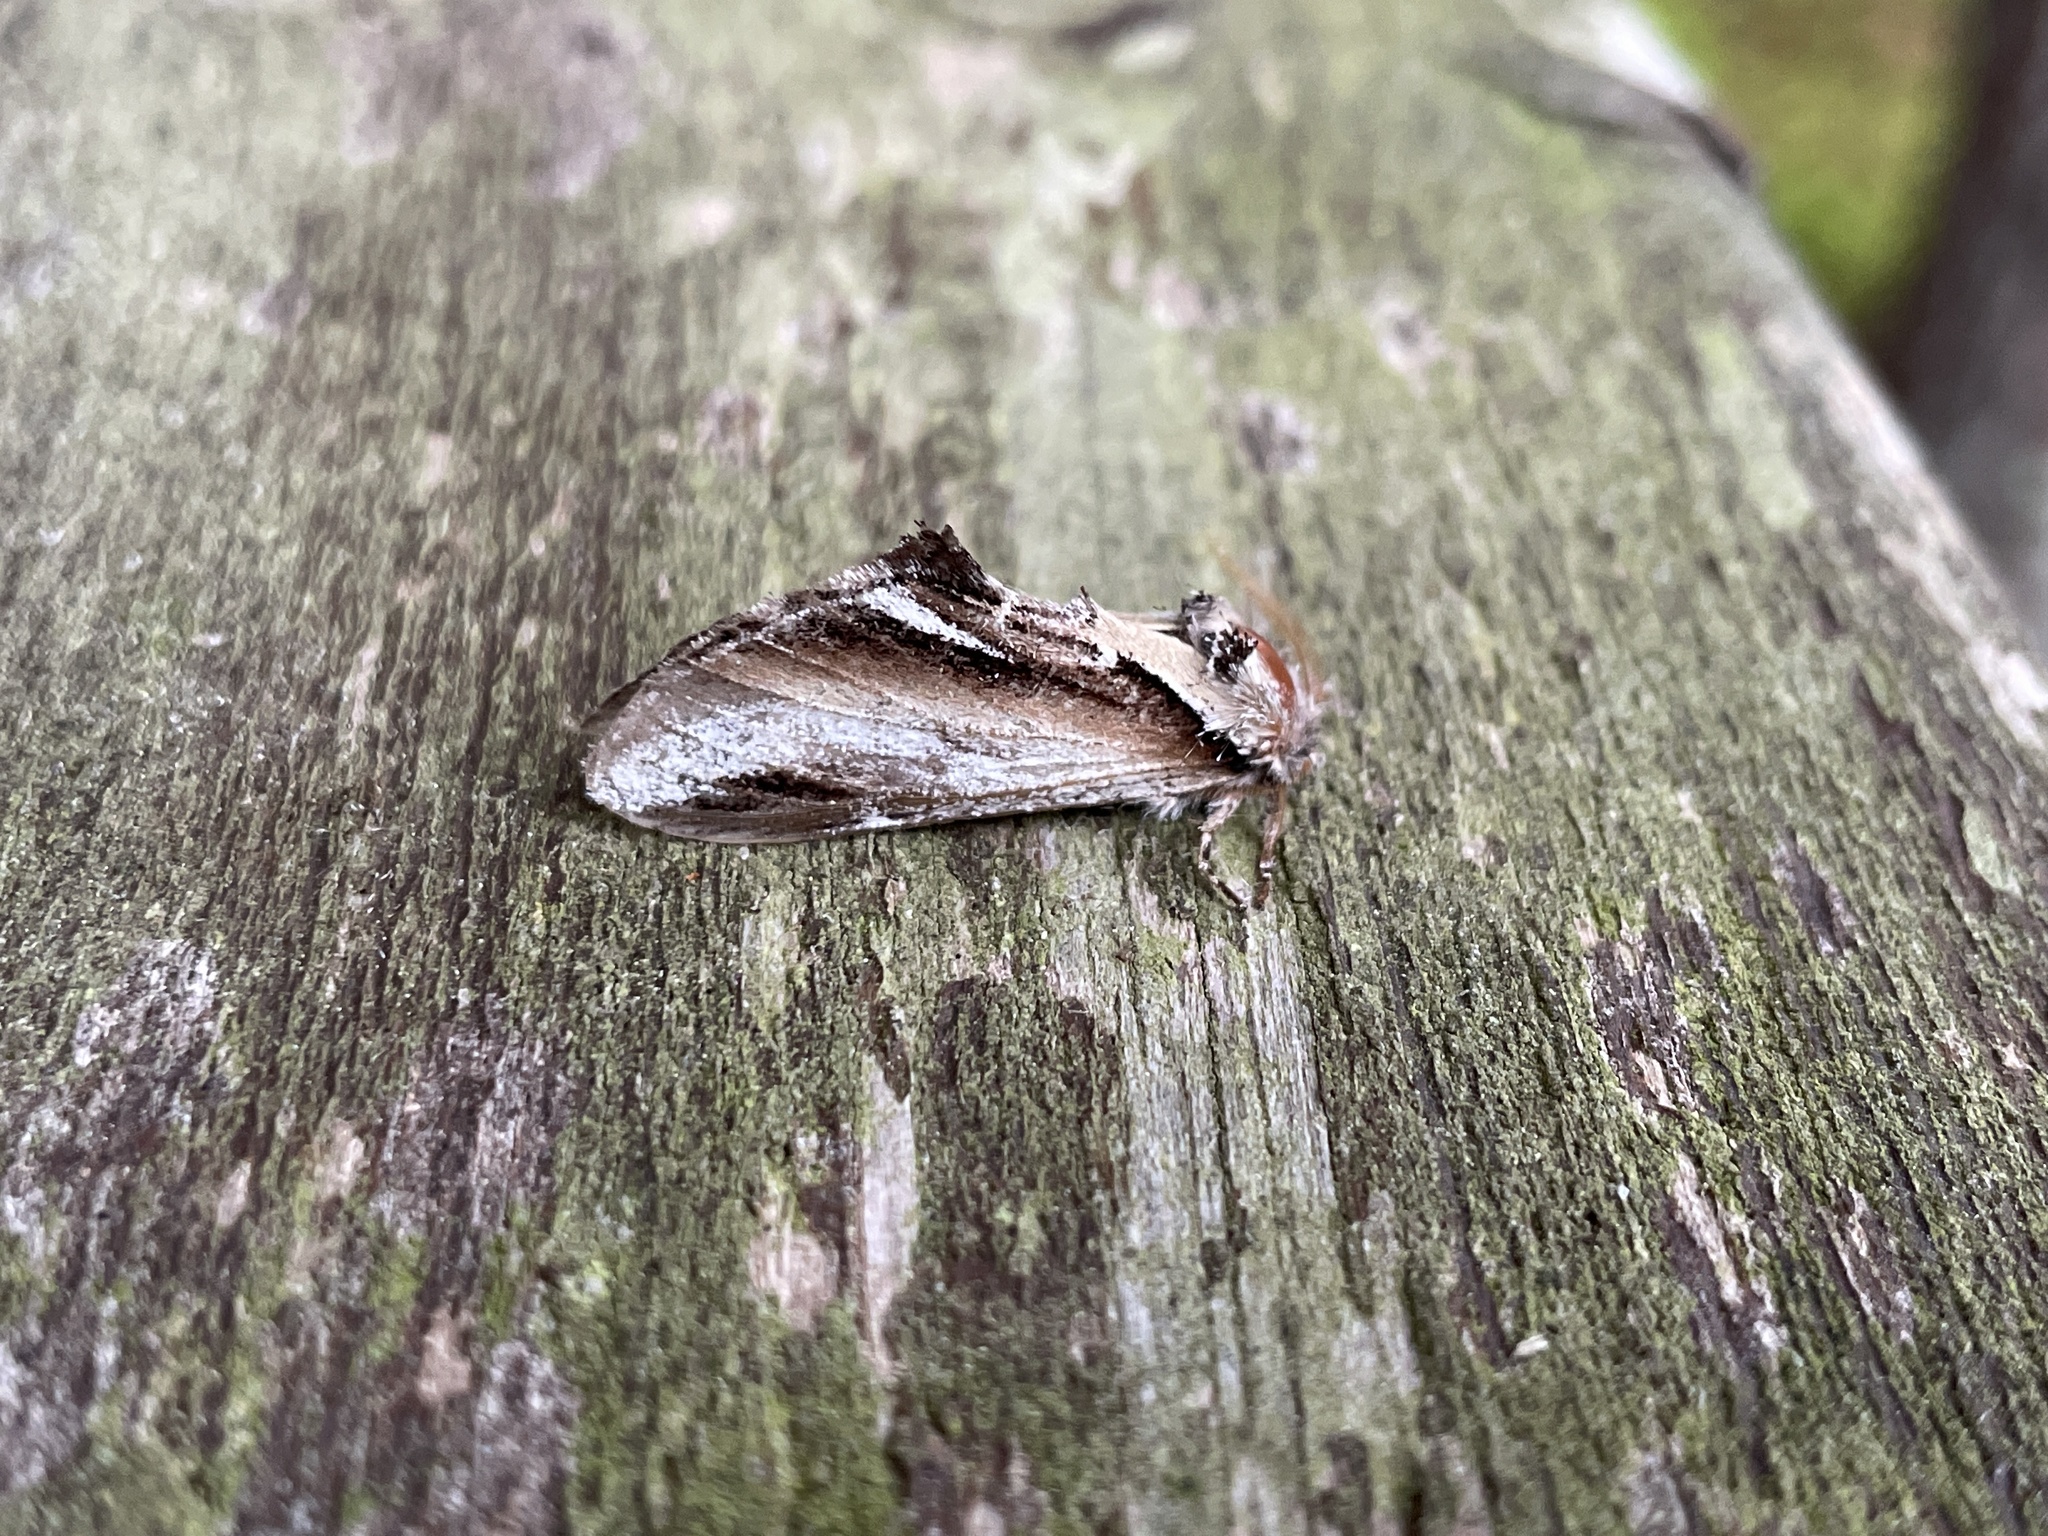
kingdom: Animalia
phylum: Arthropoda
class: Insecta
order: Lepidoptera
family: Notodontidae
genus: Pheosia
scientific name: Pheosia gnoma
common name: Lesser swallow prominent
